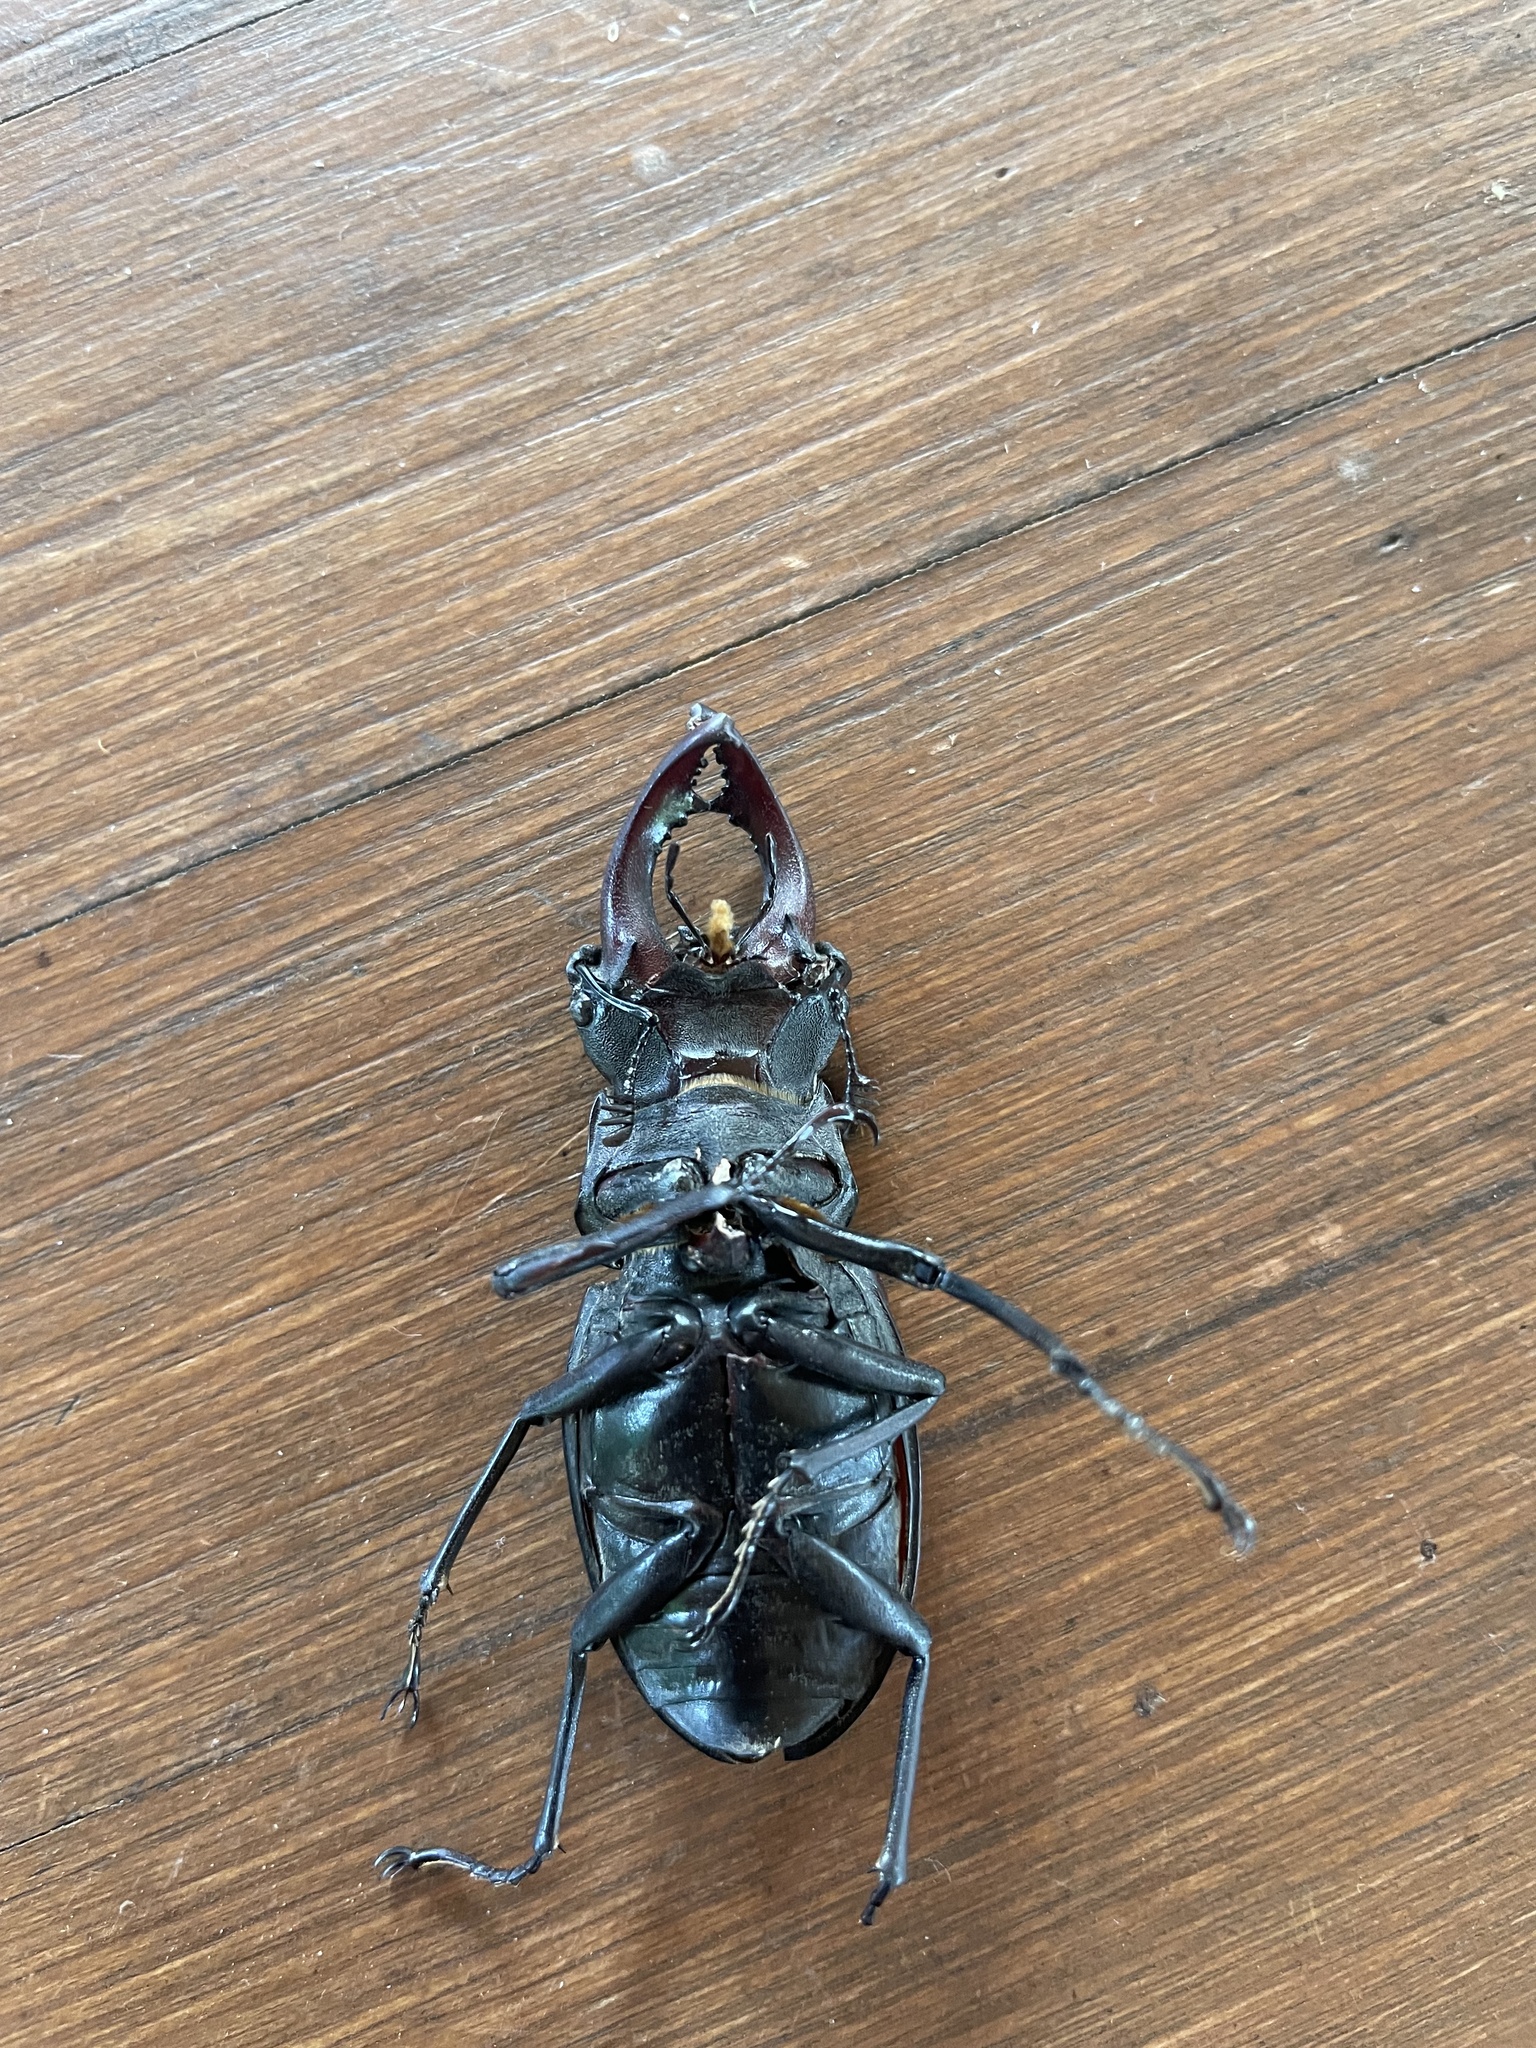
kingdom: Animalia
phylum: Arthropoda
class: Insecta
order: Coleoptera
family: Lucanidae
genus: Lucanus
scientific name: Lucanus cervus
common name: Stag beetle
